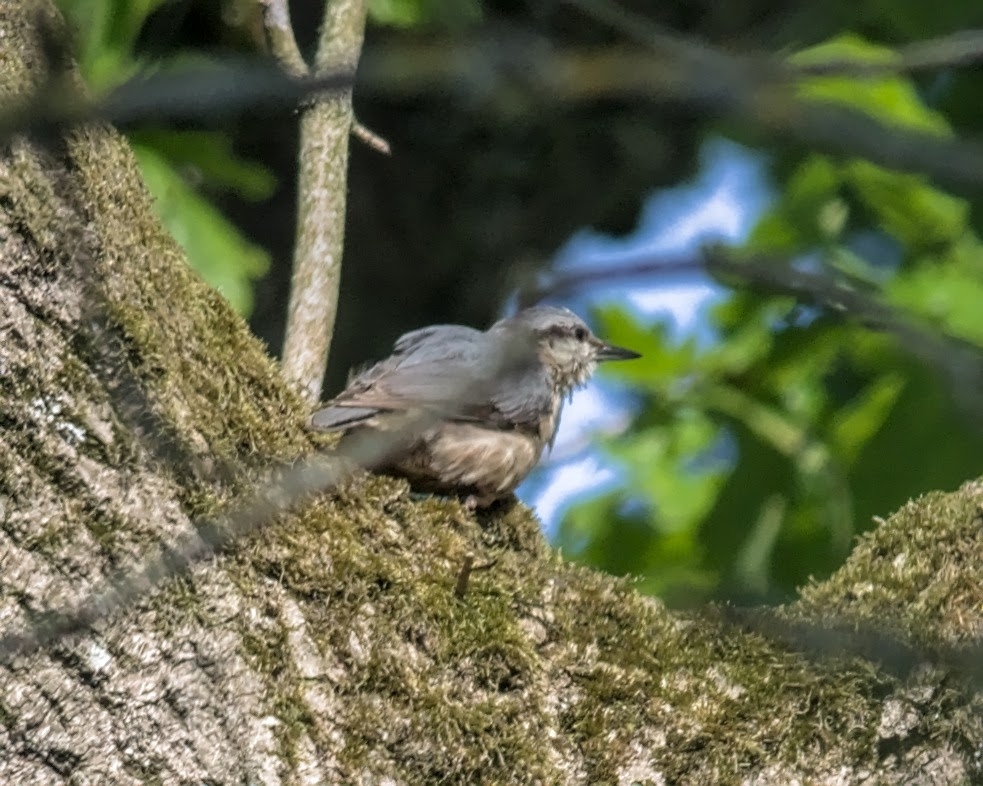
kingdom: Animalia
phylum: Chordata
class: Aves
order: Passeriformes
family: Sittidae
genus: Sitta
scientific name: Sitta europaea
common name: Eurasian nuthatch
